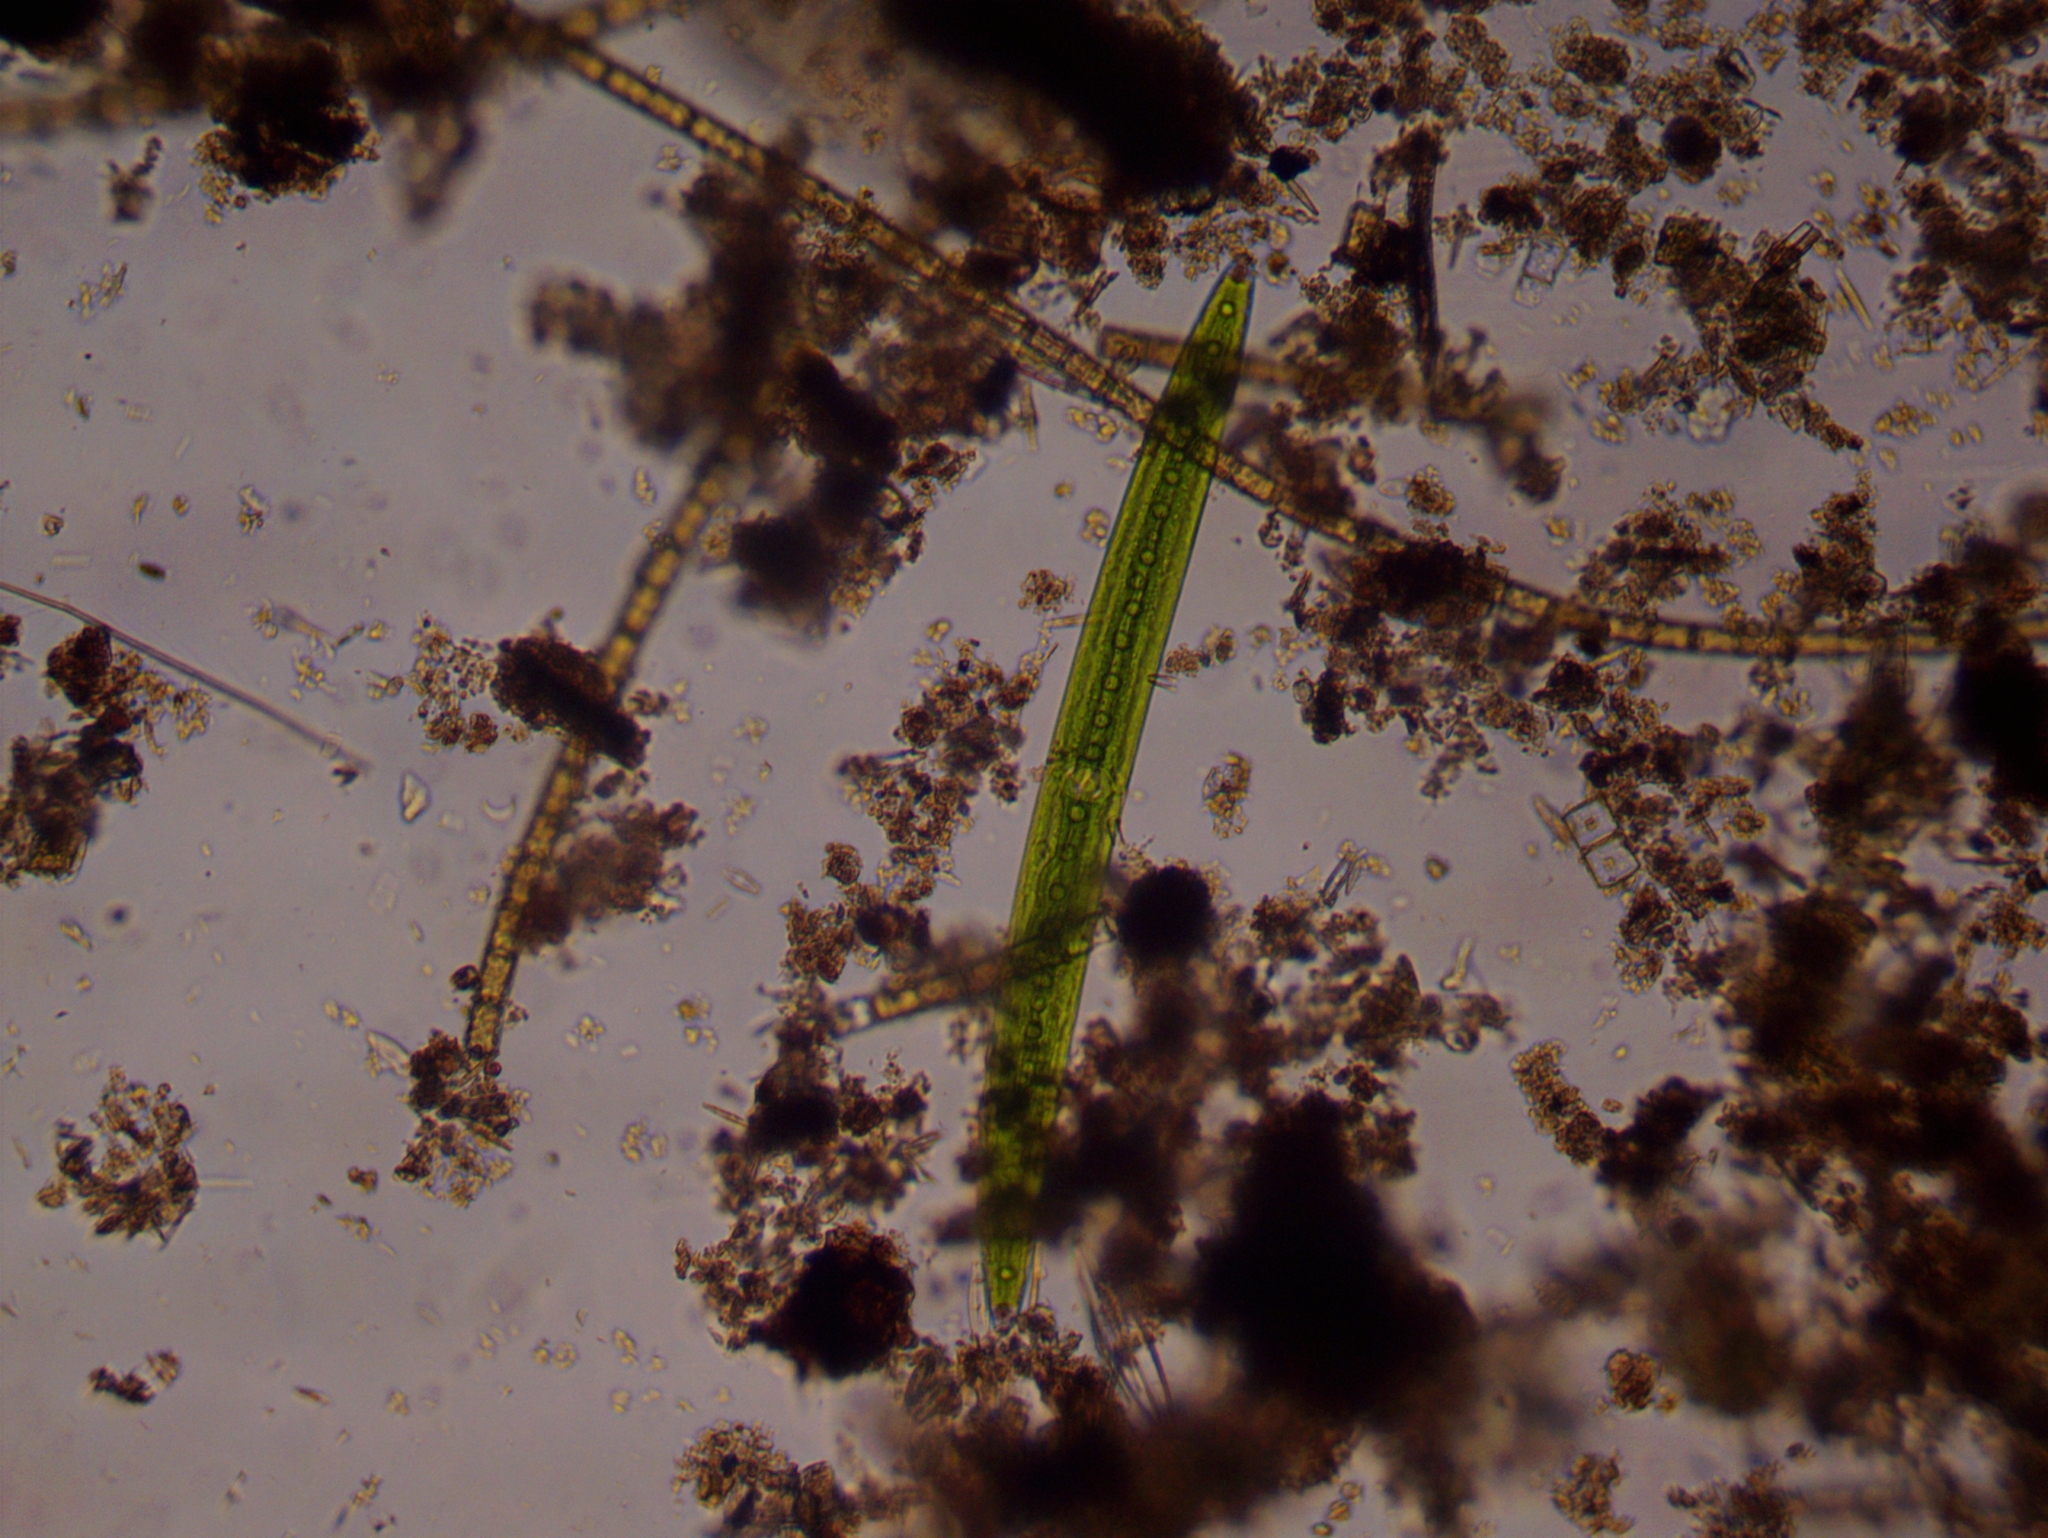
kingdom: Plantae
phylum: Charophyta
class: Zygnematophyceae
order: Zygnematales
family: Closteriaceae
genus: Closterium
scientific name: Closterium acerosum
